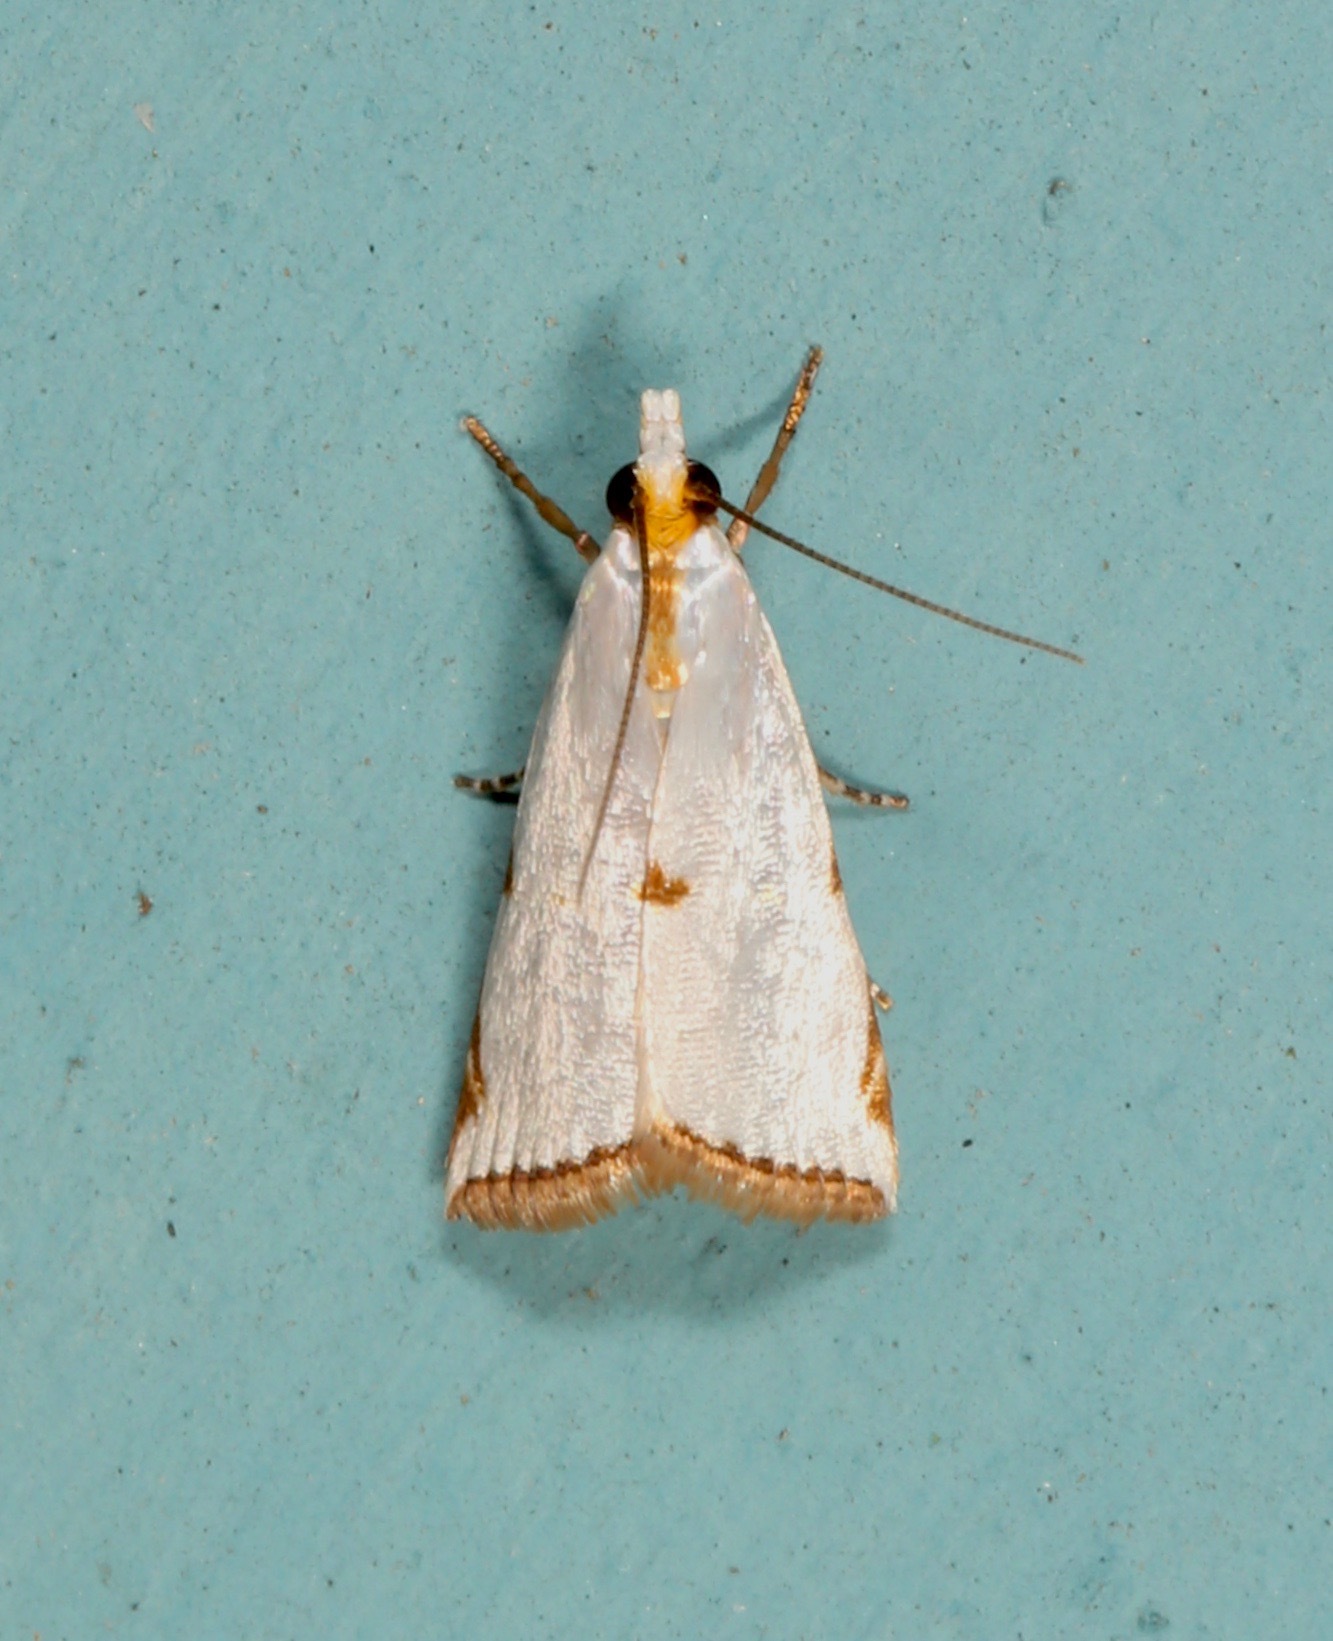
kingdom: Animalia
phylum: Arthropoda
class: Insecta
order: Lepidoptera
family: Crambidae
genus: Argyria
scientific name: Argyria lacteella
